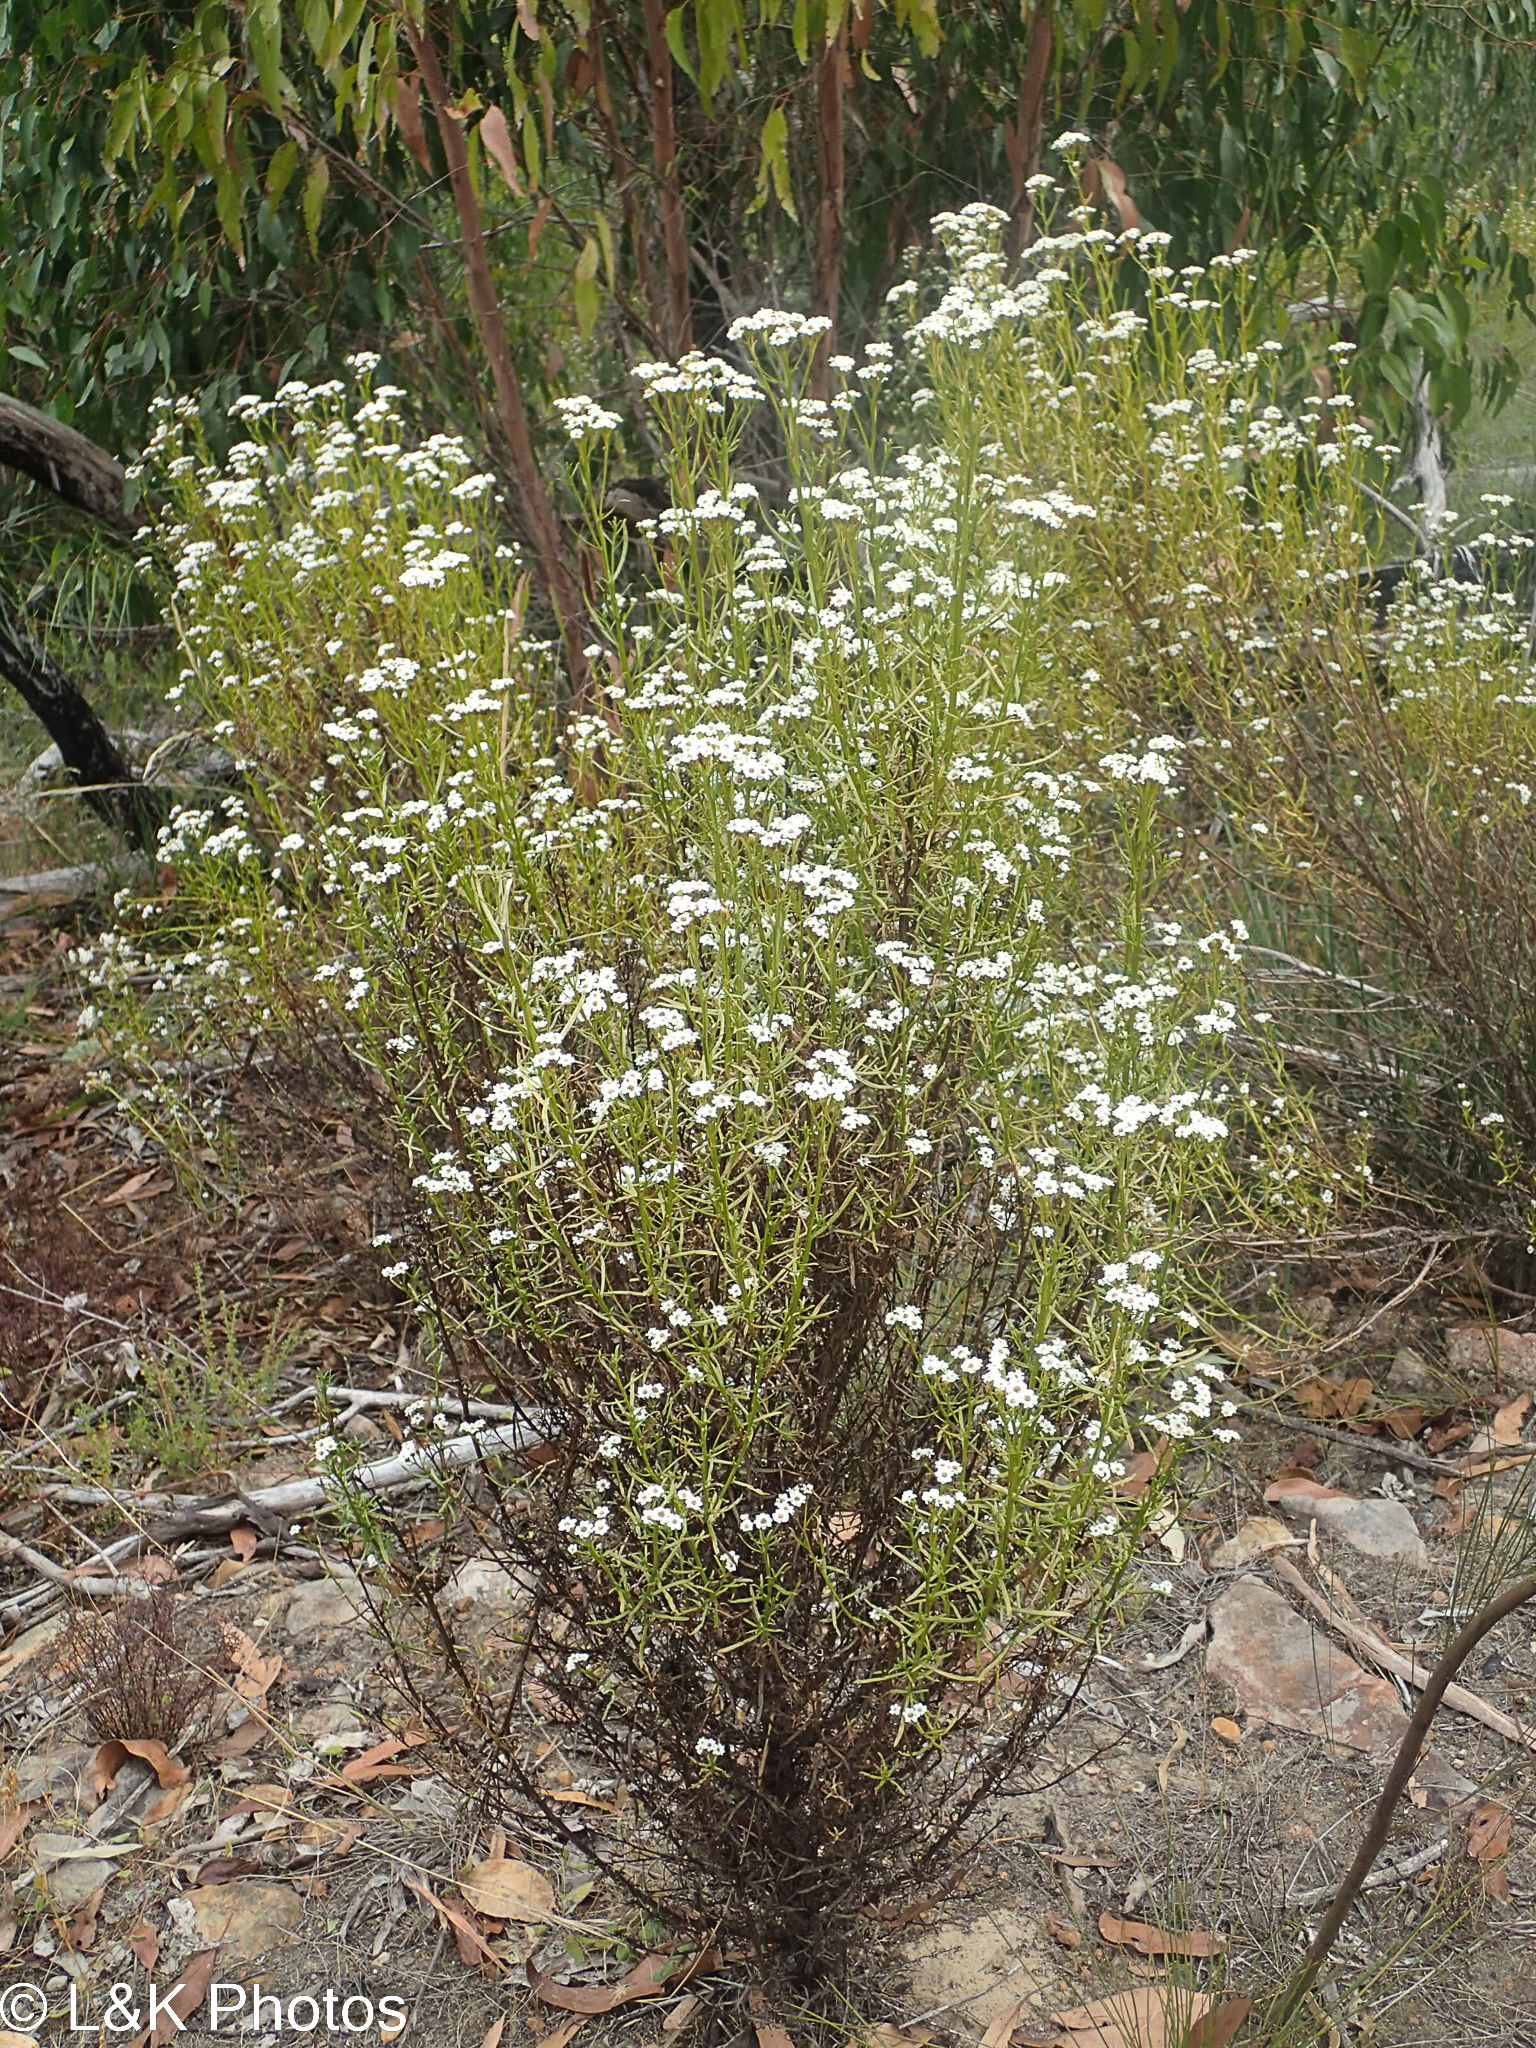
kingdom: Plantae
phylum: Tracheophyta
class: Magnoliopsida
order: Asterales
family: Asteraceae
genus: Ixodia
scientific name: Ixodia achillaeoides
